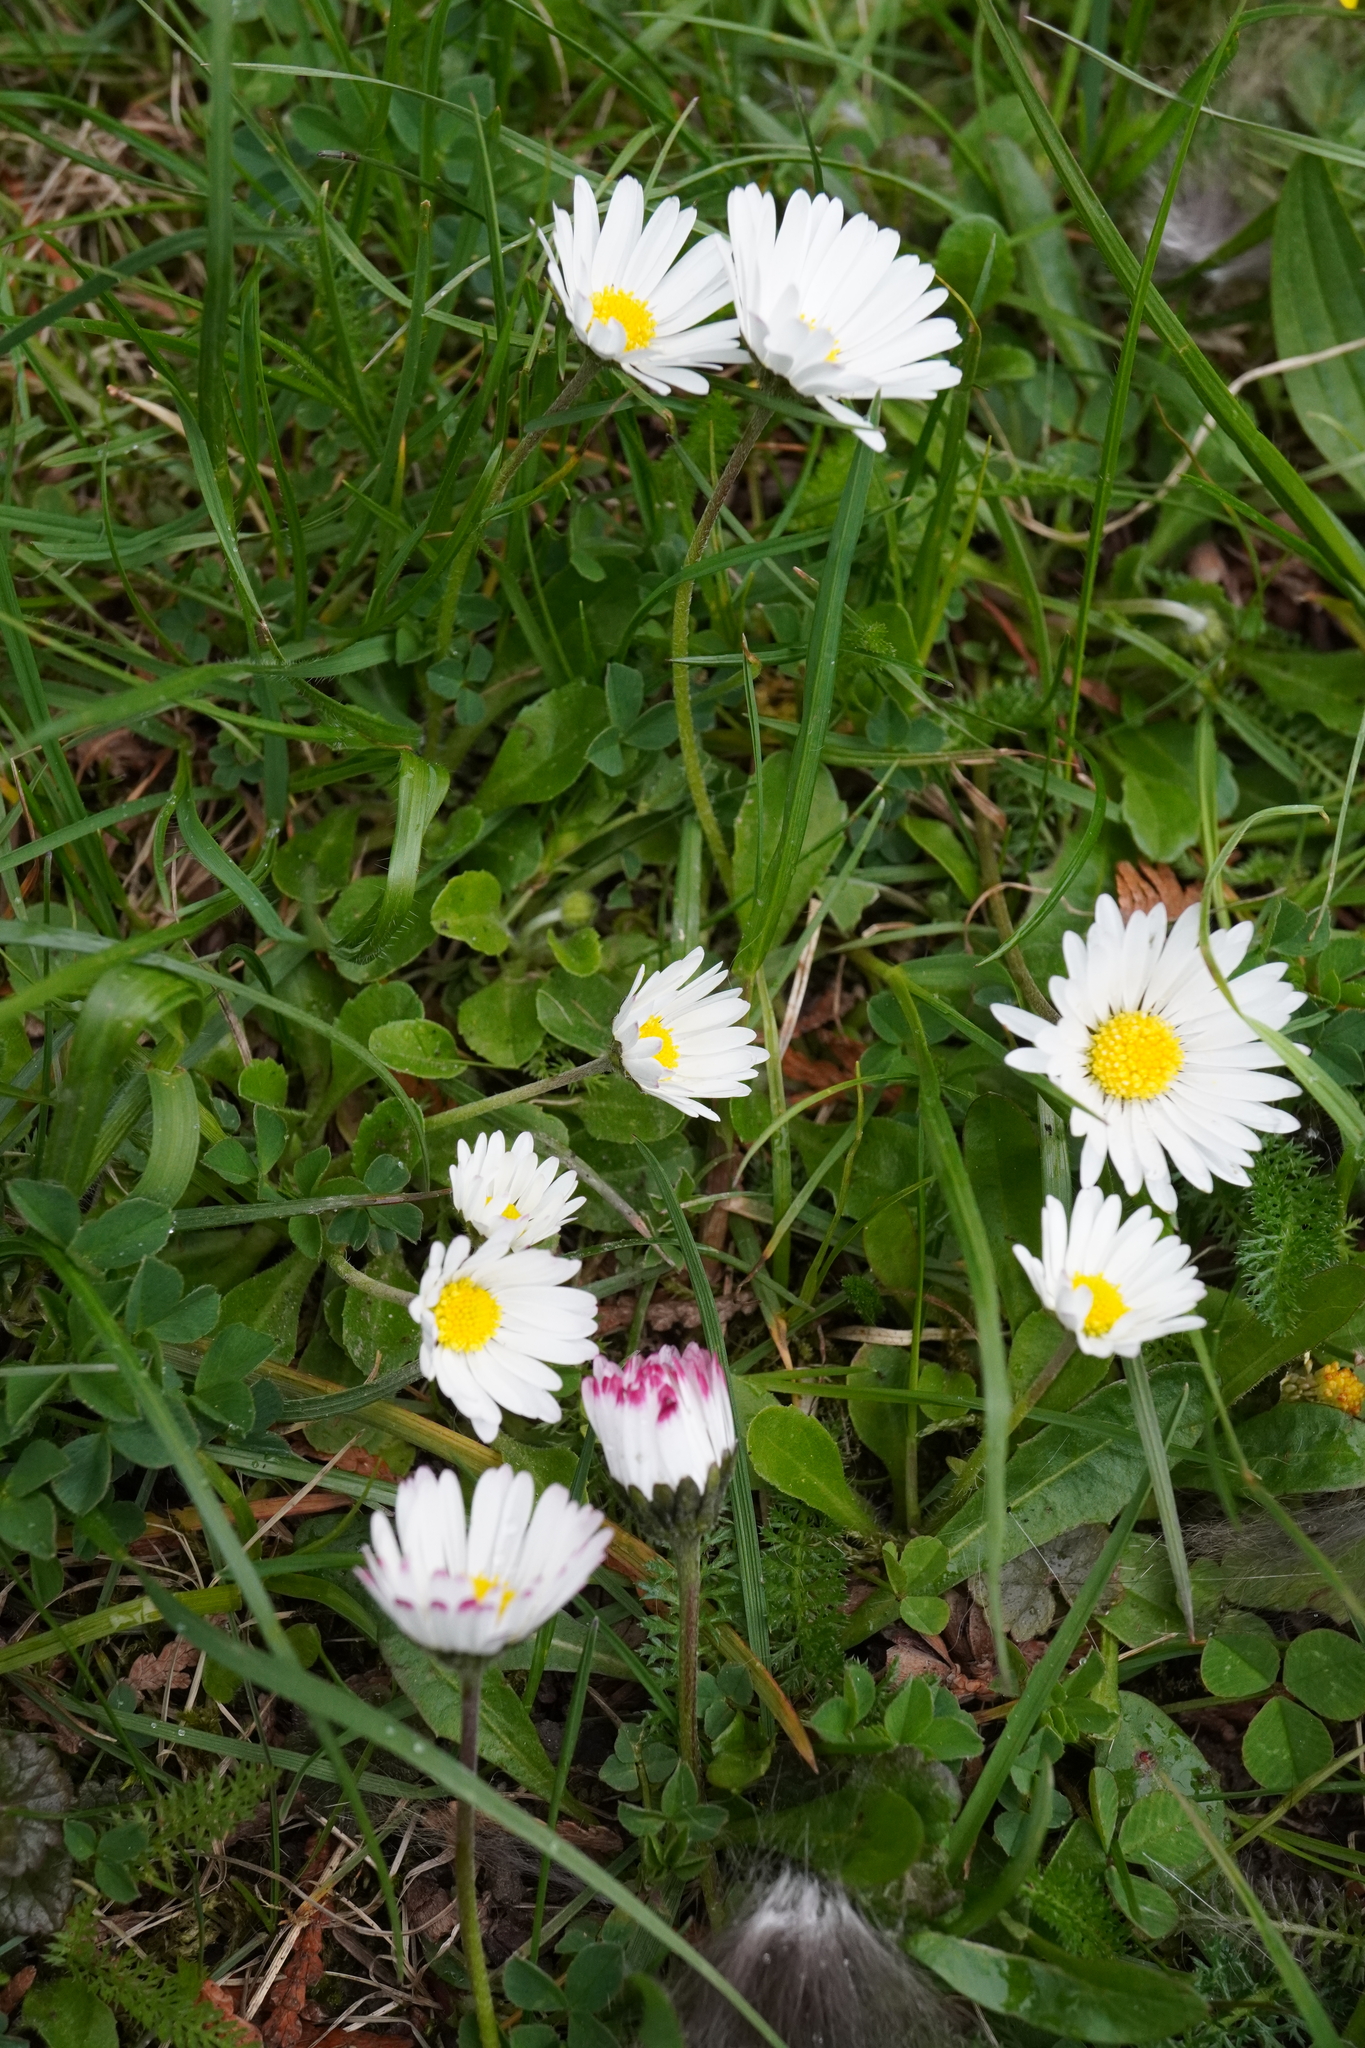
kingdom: Plantae
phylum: Tracheophyta
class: Magnoliopsida
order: Asterales
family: Asteraceae
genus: Bellis
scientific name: Bellis perennis
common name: Lawndaisy
